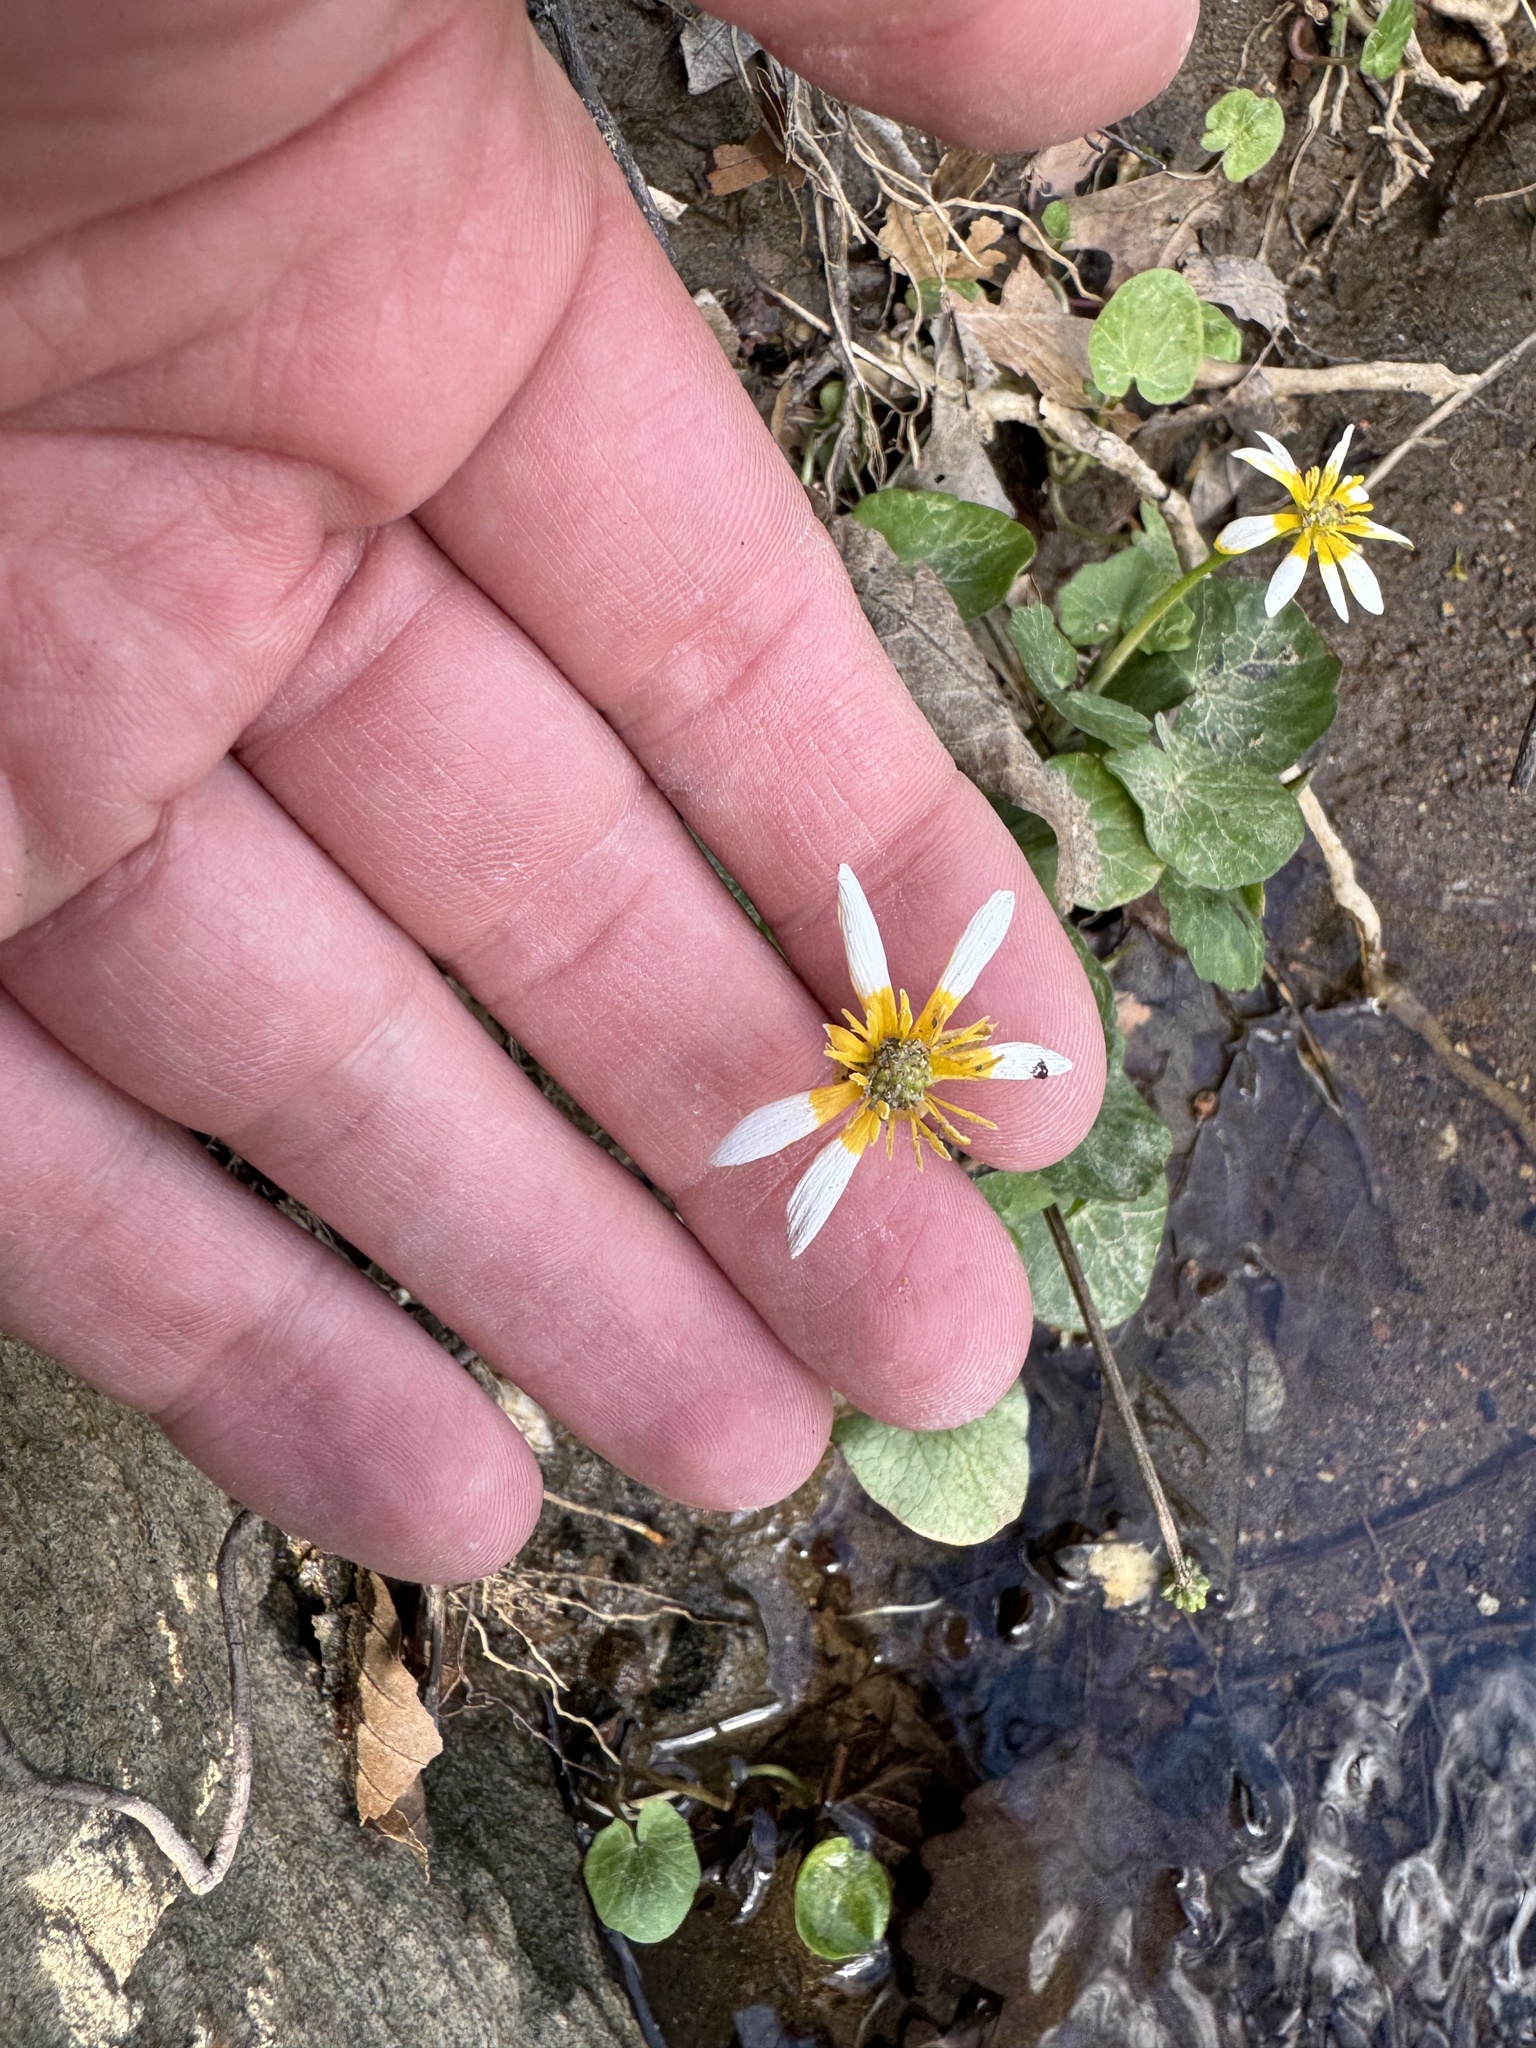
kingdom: Plantae
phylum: Tracheophyta
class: Magnoliopsida
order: Ranunculales
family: Ranunculaceae
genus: Ficaria
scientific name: Ficaria verna
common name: Lesser celandine
